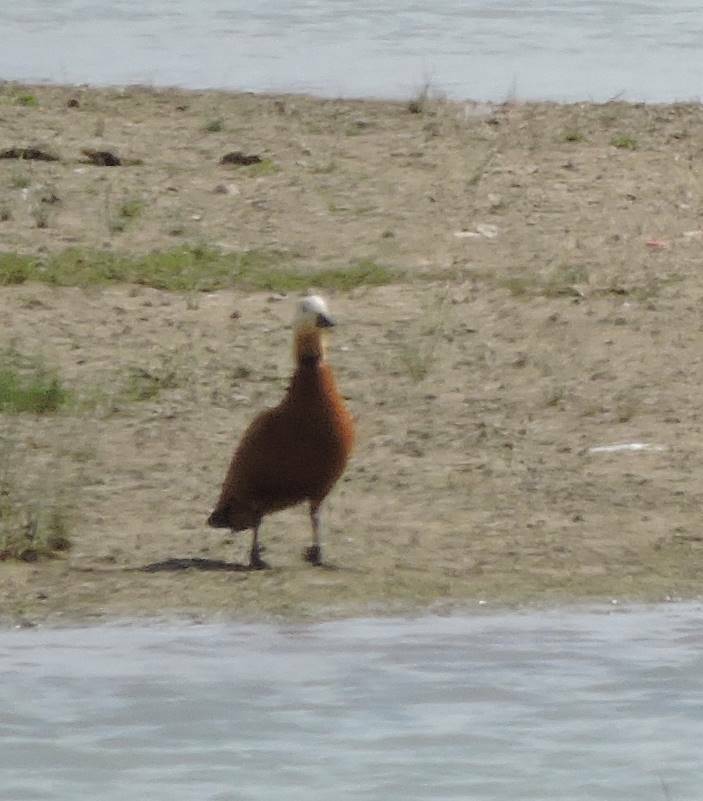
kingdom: Animalia
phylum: Chordata
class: Aves
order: Anseriformes
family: Anatidae
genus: Tadorna
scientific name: Tadorna ferruginea
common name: Ruddy shelduck
